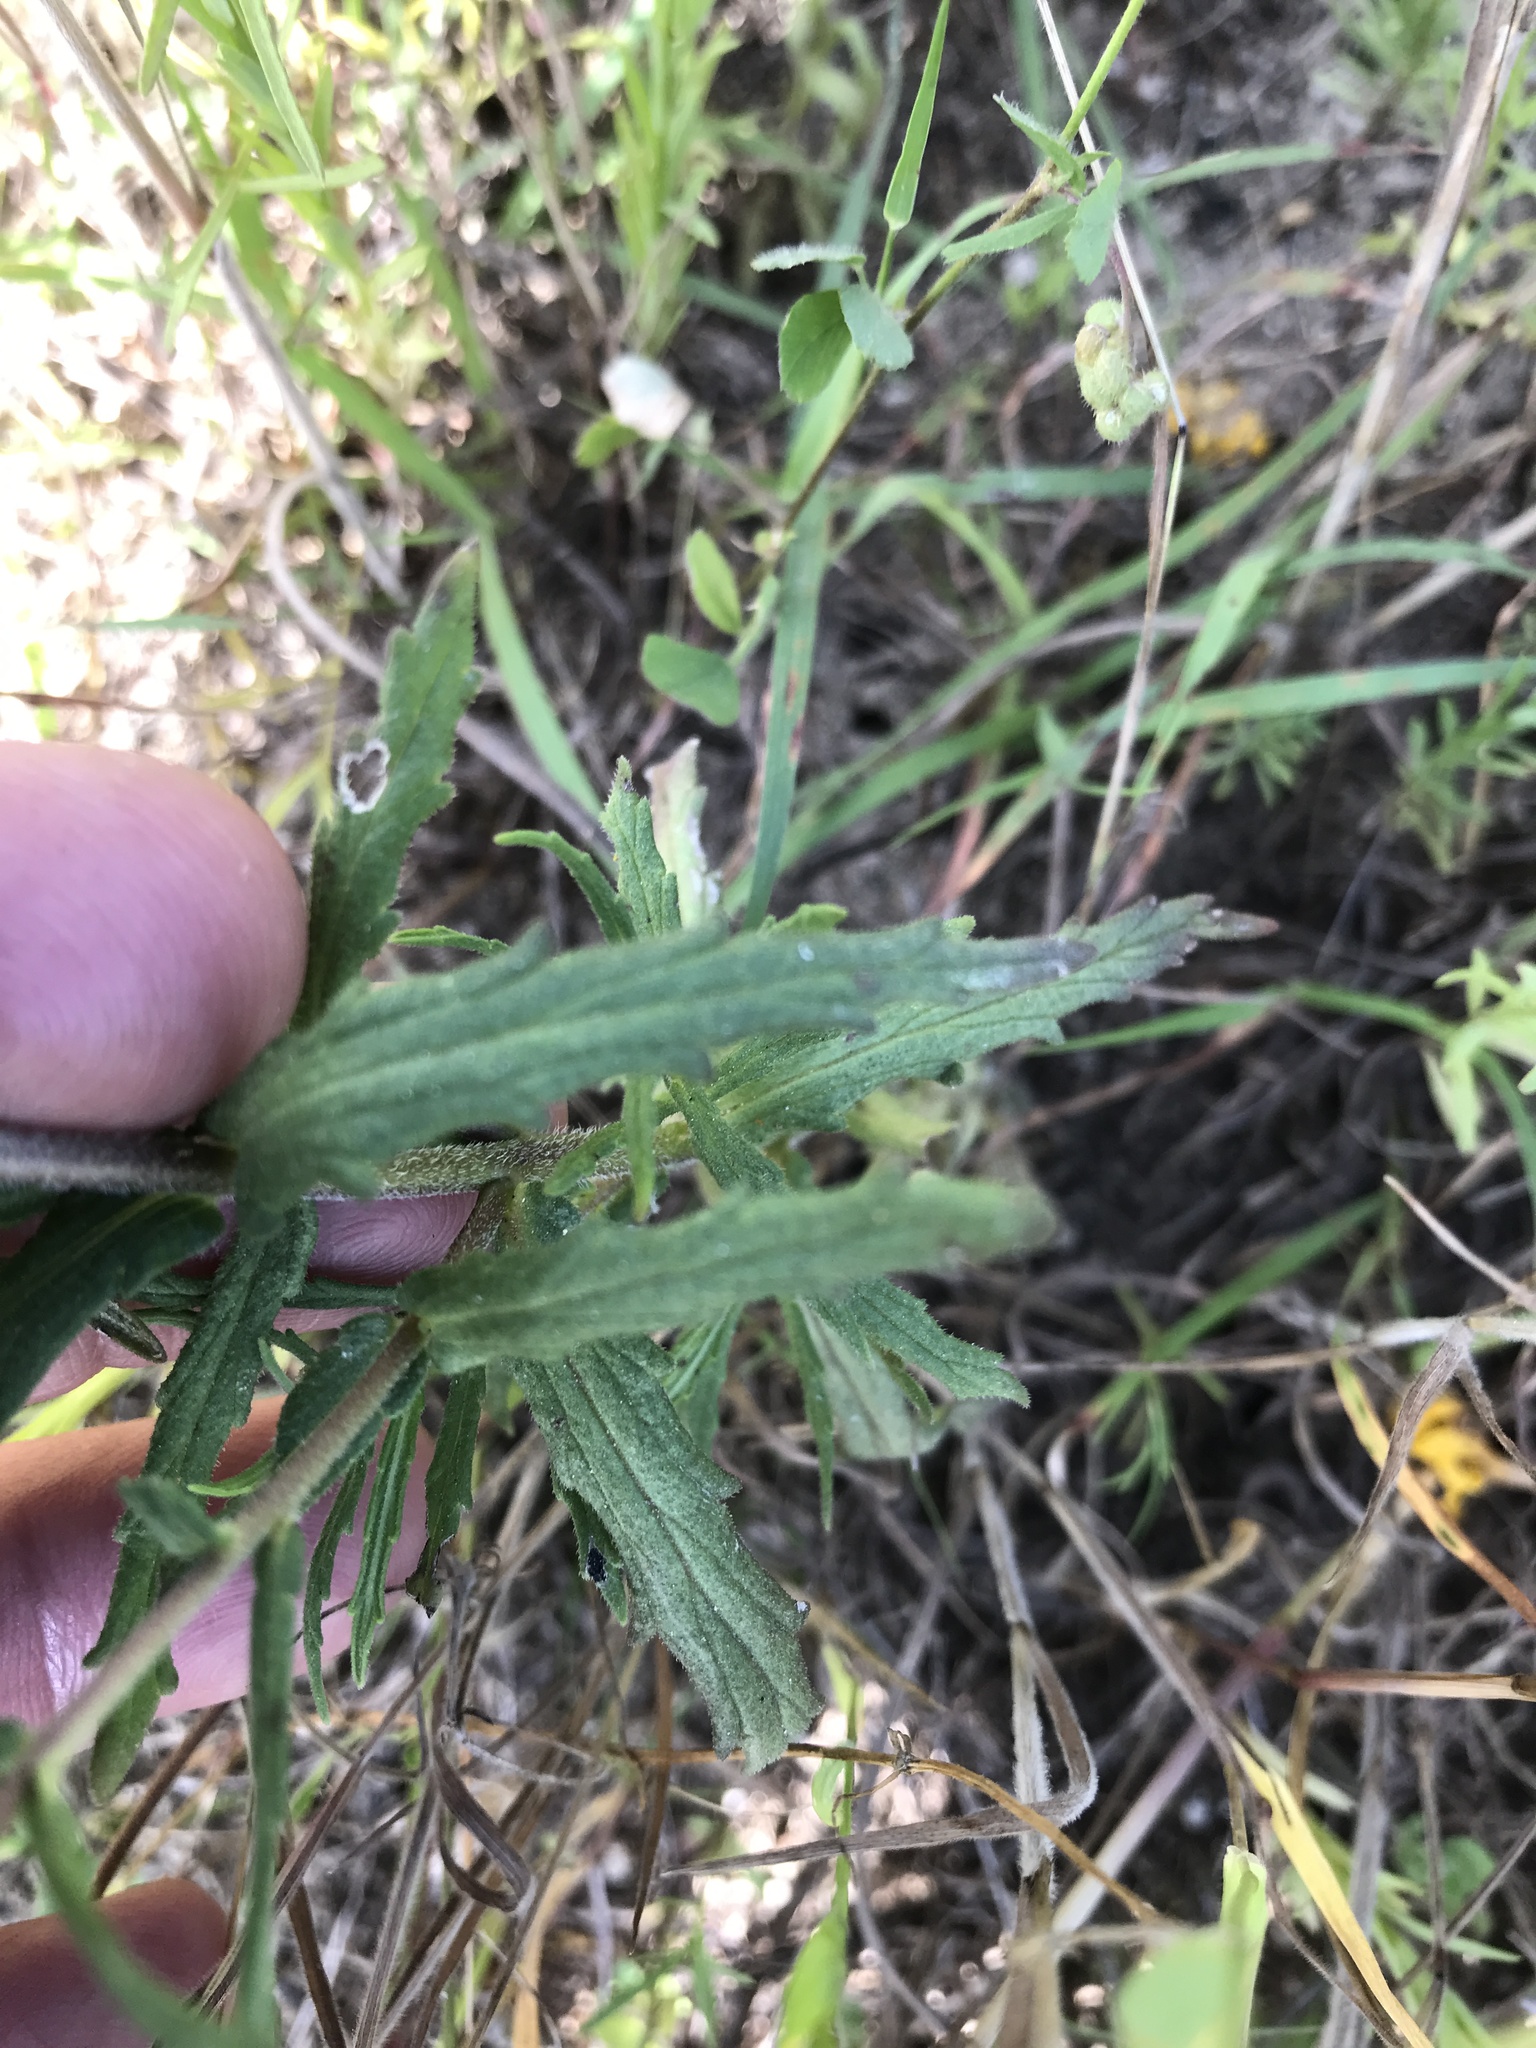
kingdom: Plantae
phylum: Tracheophyta
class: Magnoliopsida
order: Lamiales
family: Orobanchaceae
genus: Bellardia
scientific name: Bellardia trixago
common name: Mediterranean lineseed
